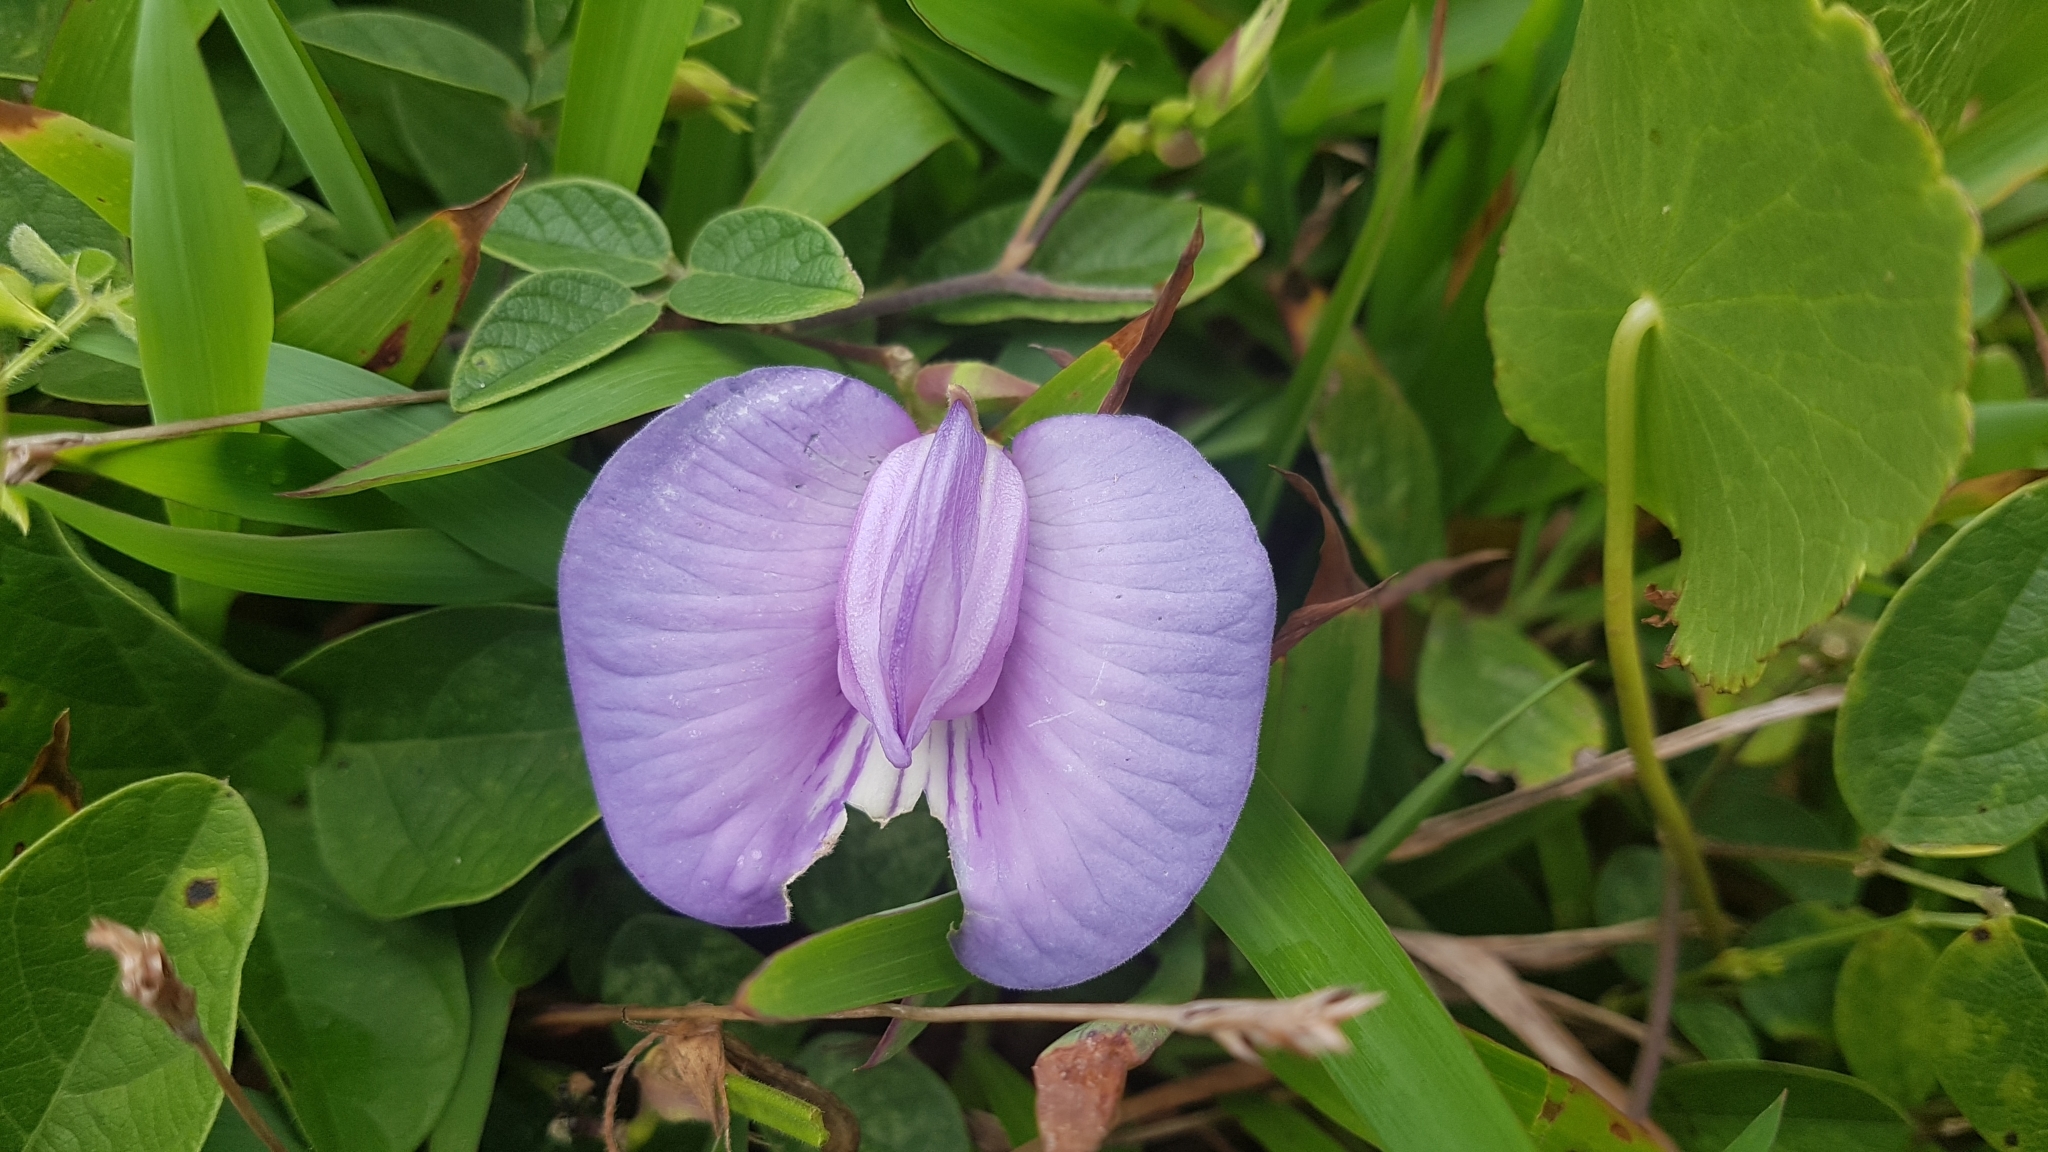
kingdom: Plantae
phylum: Tracheophyta
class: Magnoliopsida
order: Fabales
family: Fabaceae
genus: Centrosema
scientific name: Centrosema virginianum
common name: Butterfly-pea
